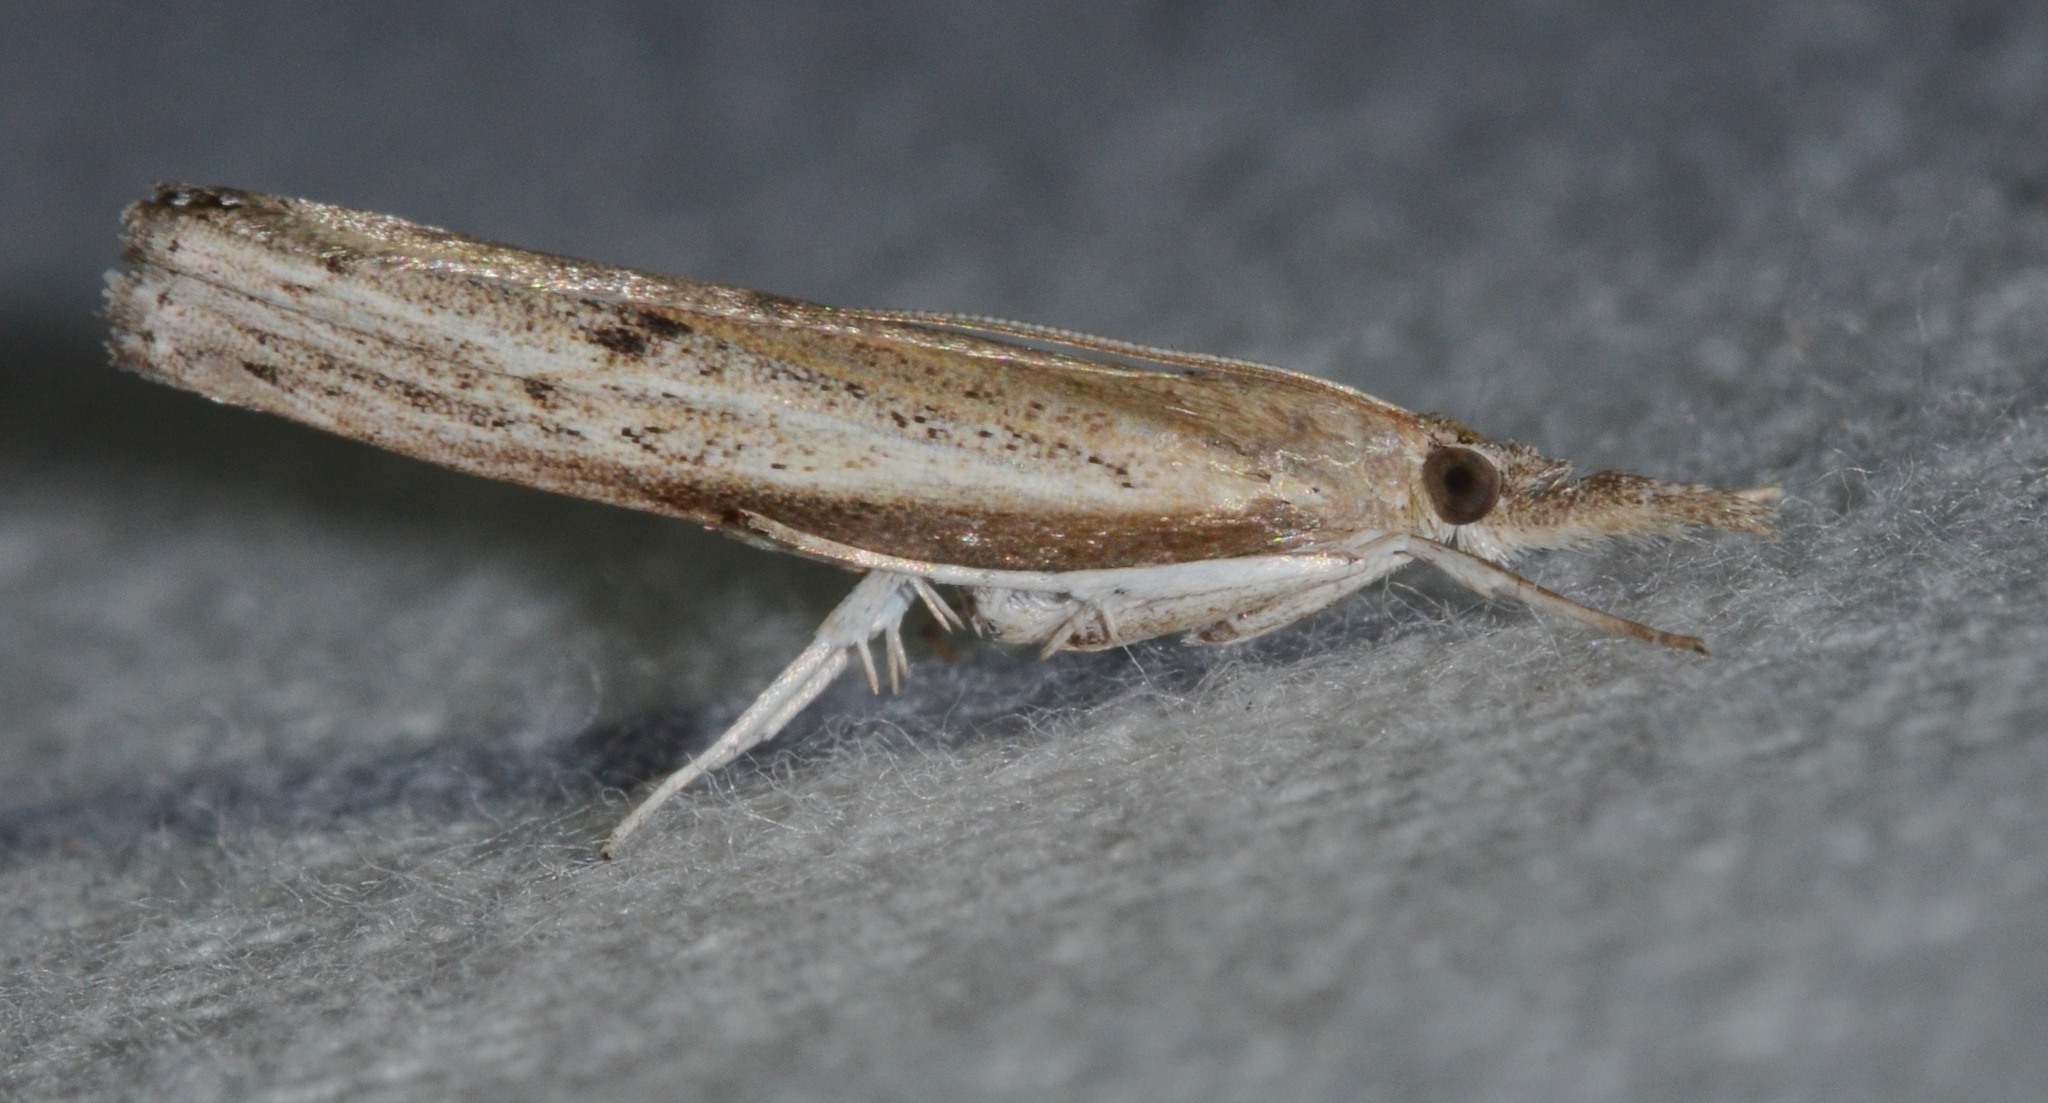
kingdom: Animalia
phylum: Arthropoda
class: Insecta
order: Lepidoptera
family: Crambidae
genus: Fissicrambus
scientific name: Fissicrambus mutabilis
